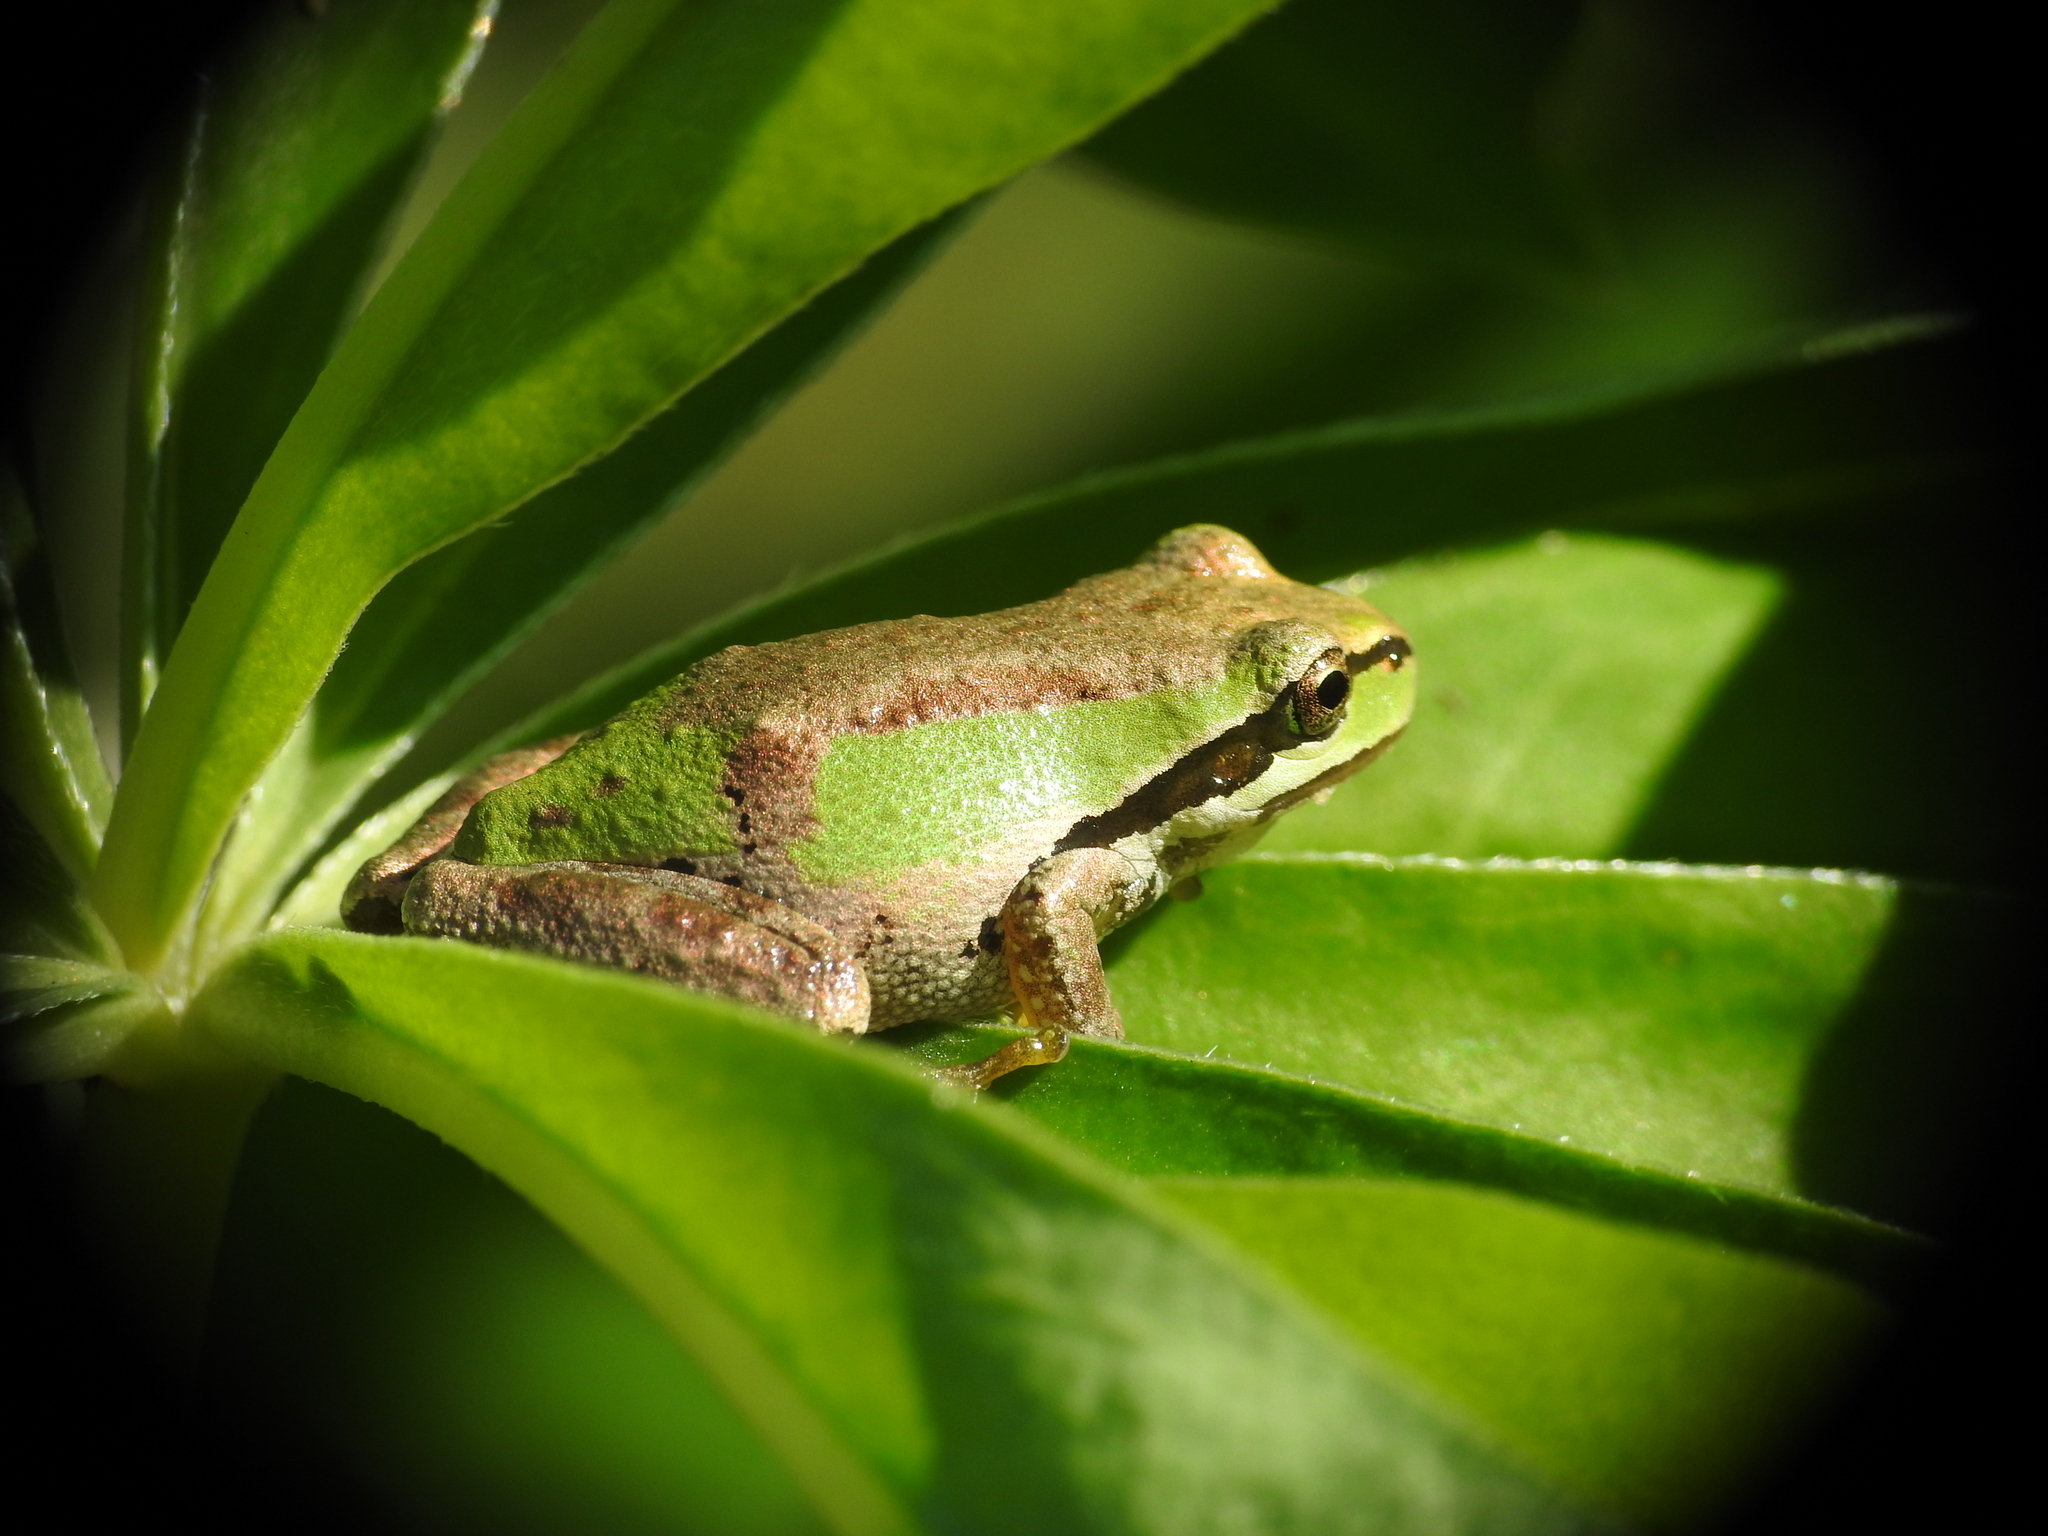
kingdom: Animalia
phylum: Chordata
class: Amphibia
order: Anura
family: Hylidae
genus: Pseudacris
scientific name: Pseudacris regilla
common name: Pacific chorus frog
